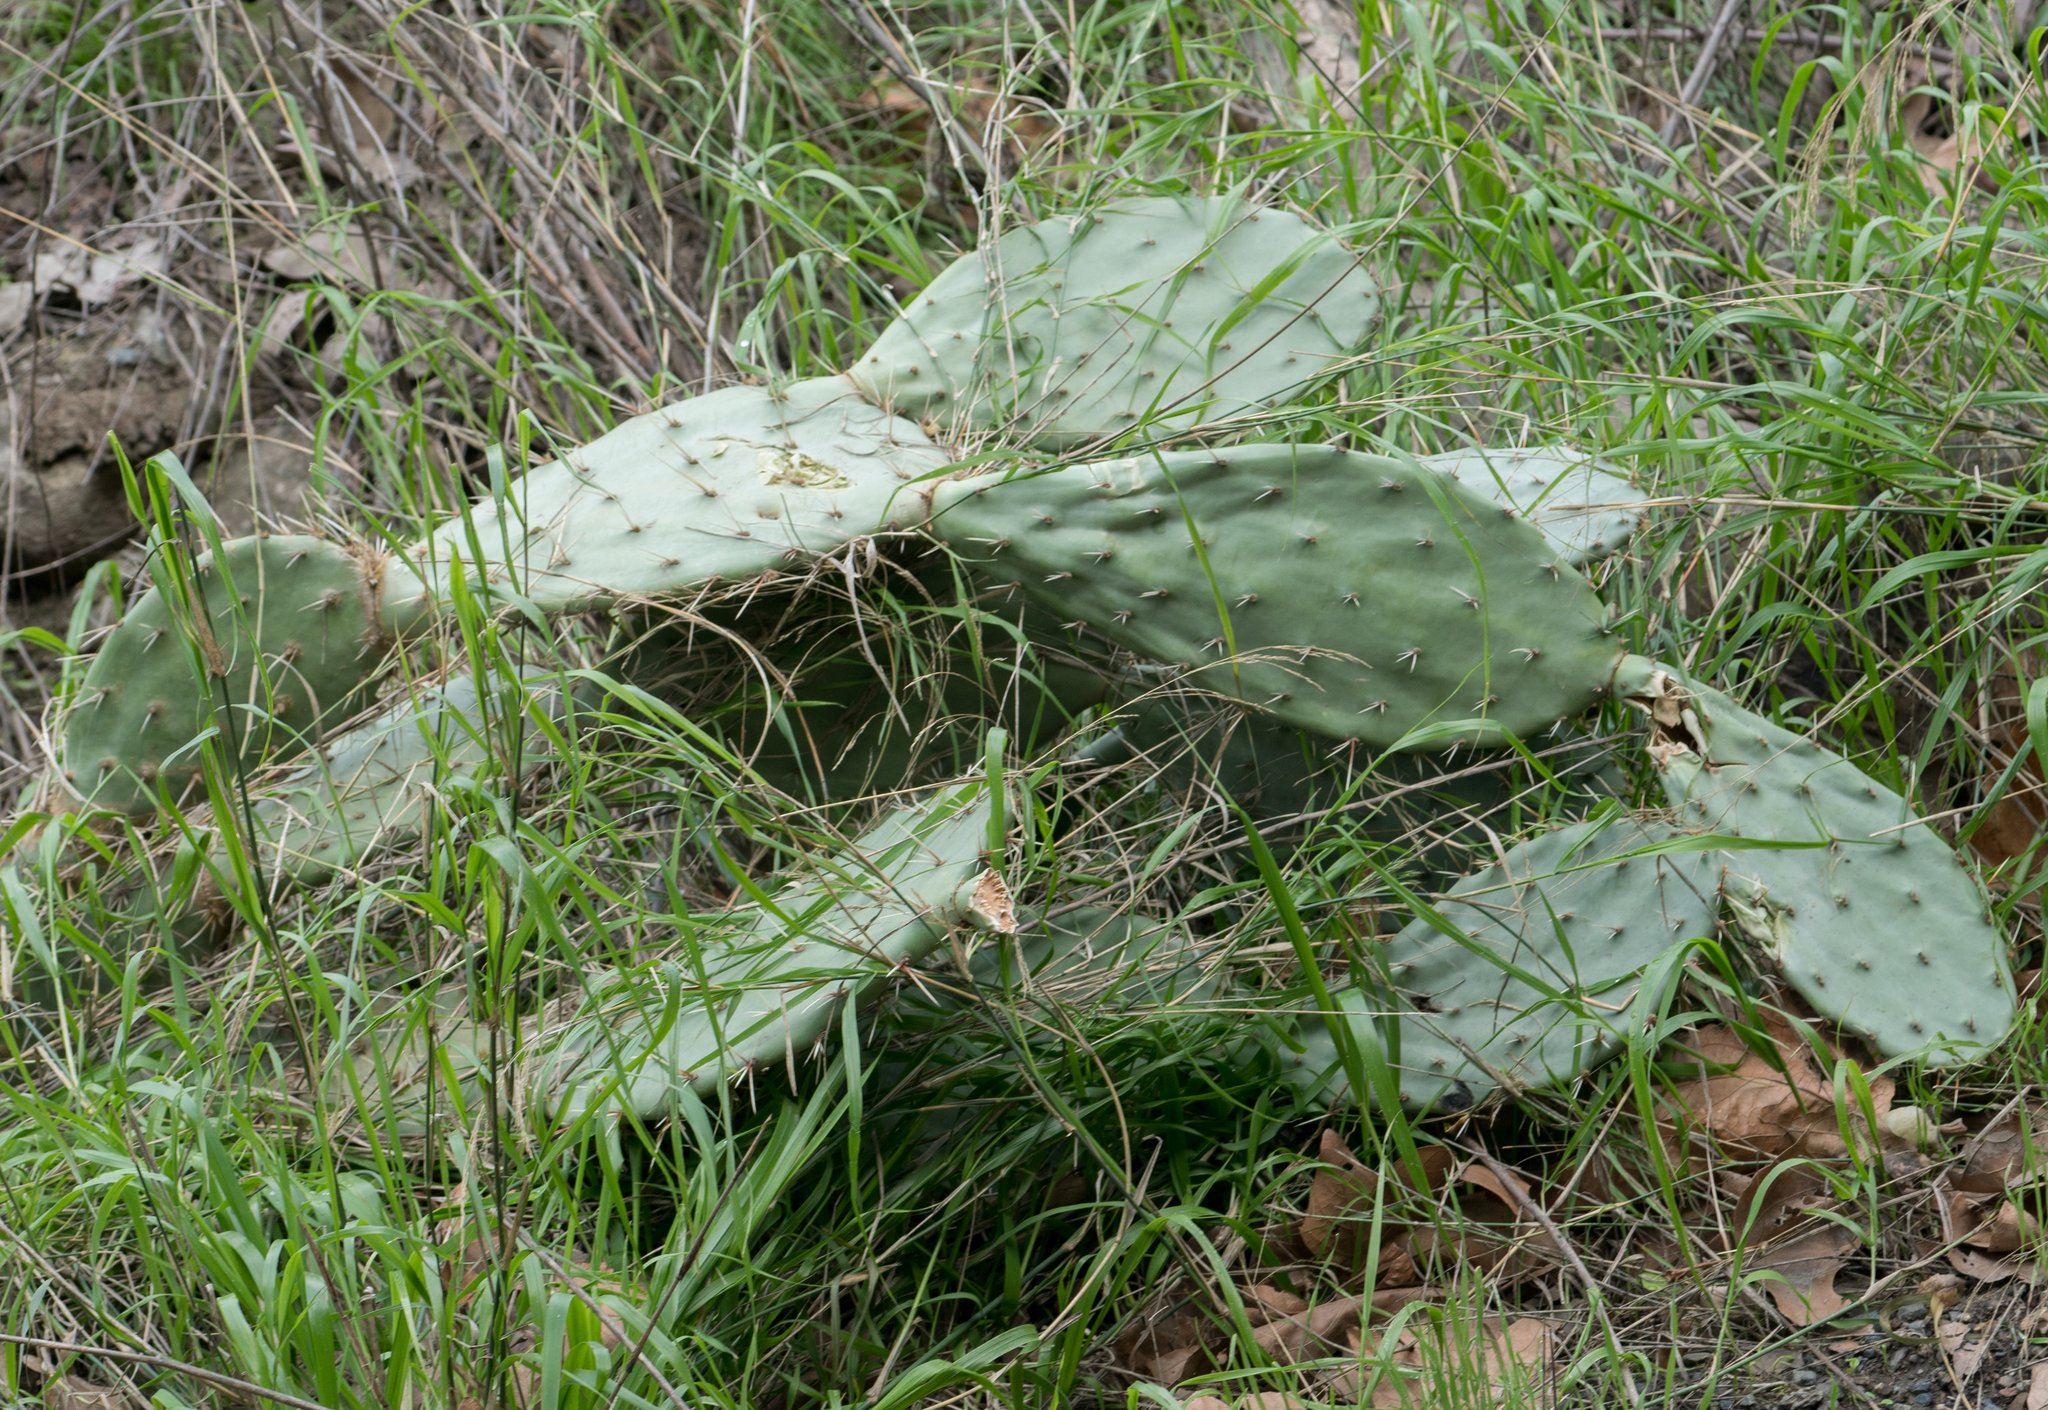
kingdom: Plantae
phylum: Tracheophyta
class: Magnoliopsida
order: Caryophyllales
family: Cactaceae
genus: Opuntia
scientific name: Opuntia
